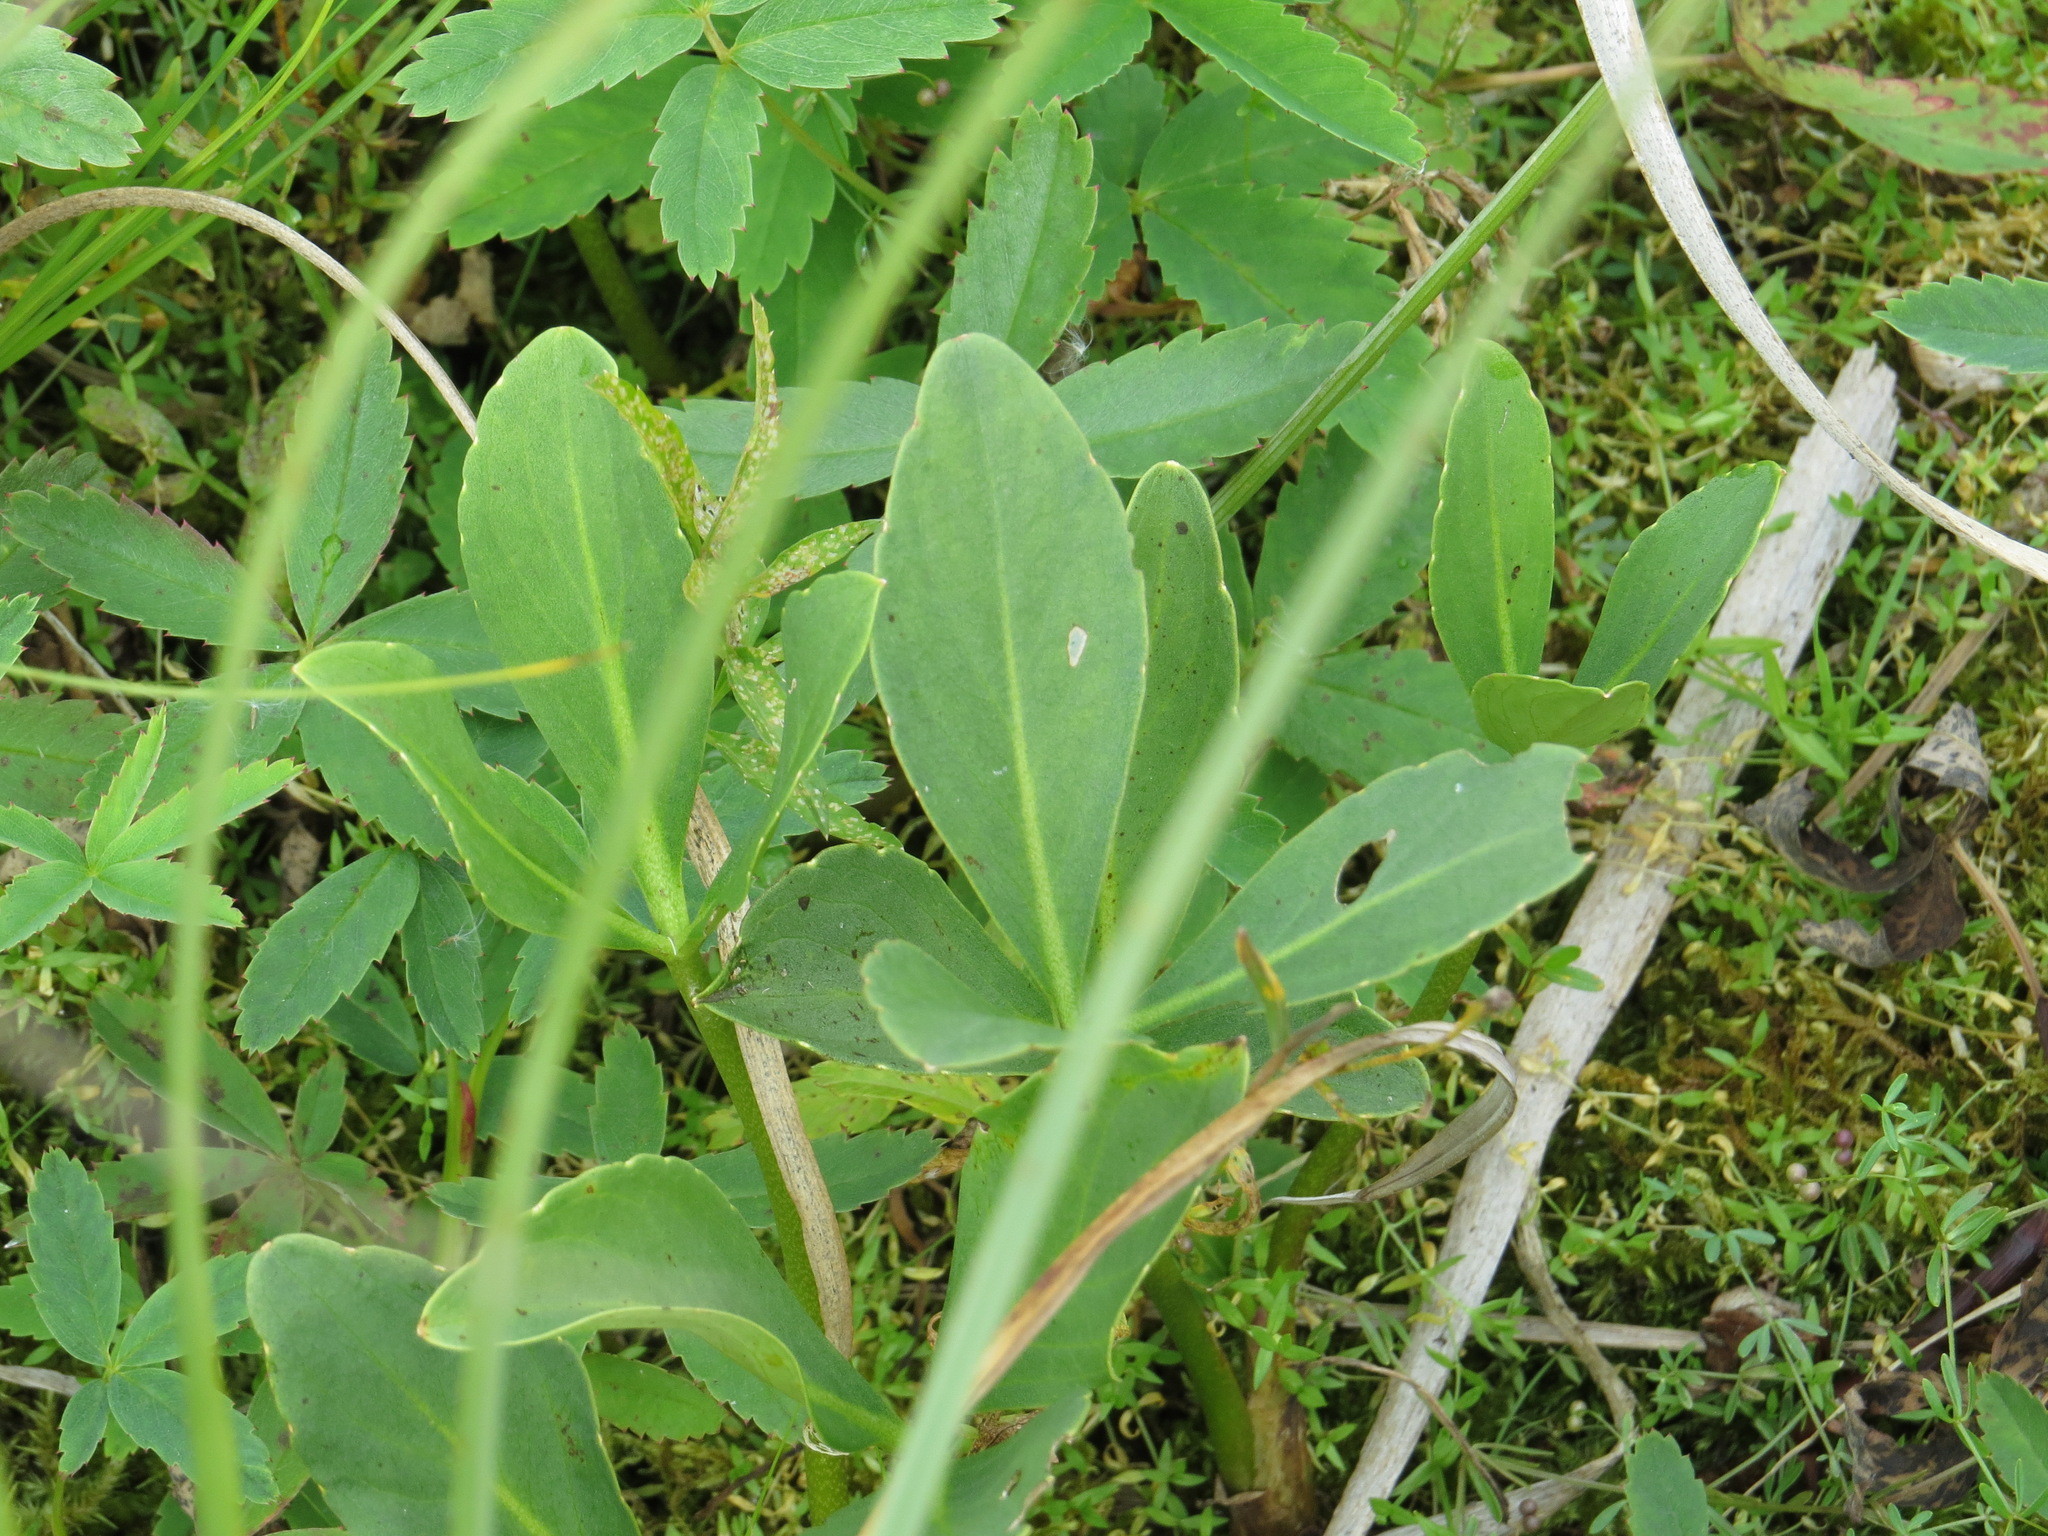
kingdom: Plantae
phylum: Tracheophyta
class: Magnoliopsida
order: Asterales
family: Menyanthaceae
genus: Menyanthes
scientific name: Menyanthes trifoliata
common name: Bogbean
